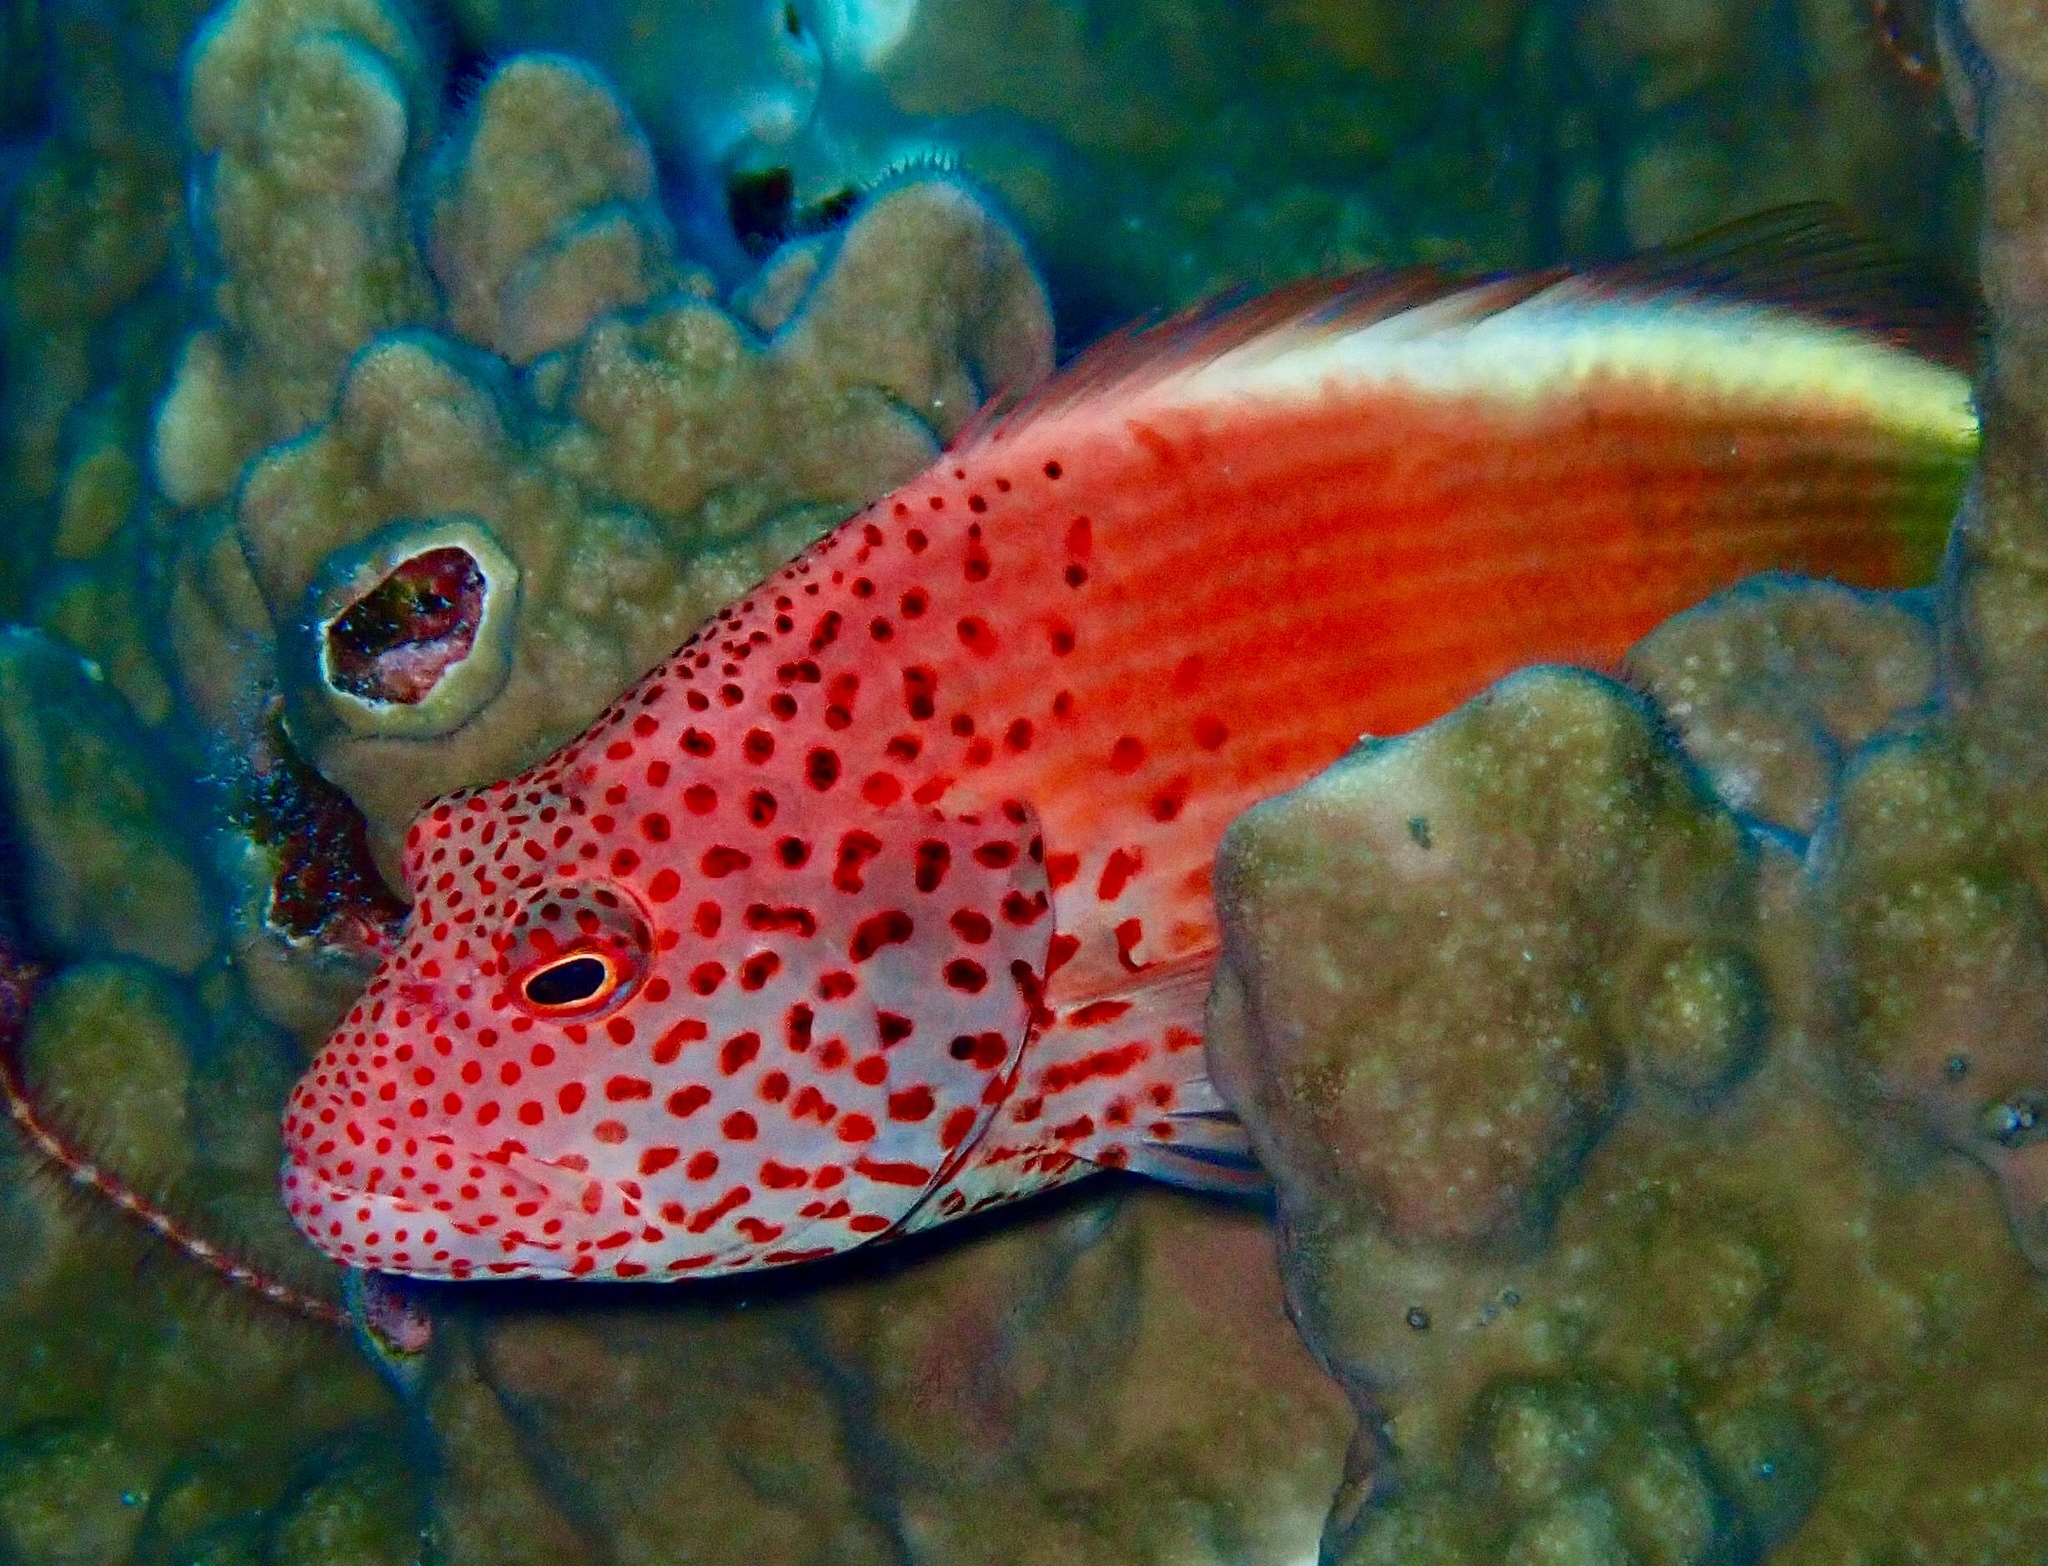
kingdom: Animalia
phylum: Chordata
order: Perciformes
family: Cirrhitidae
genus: Paracirrhites
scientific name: Paracirrhites forsteri
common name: Freckled hawkfish
